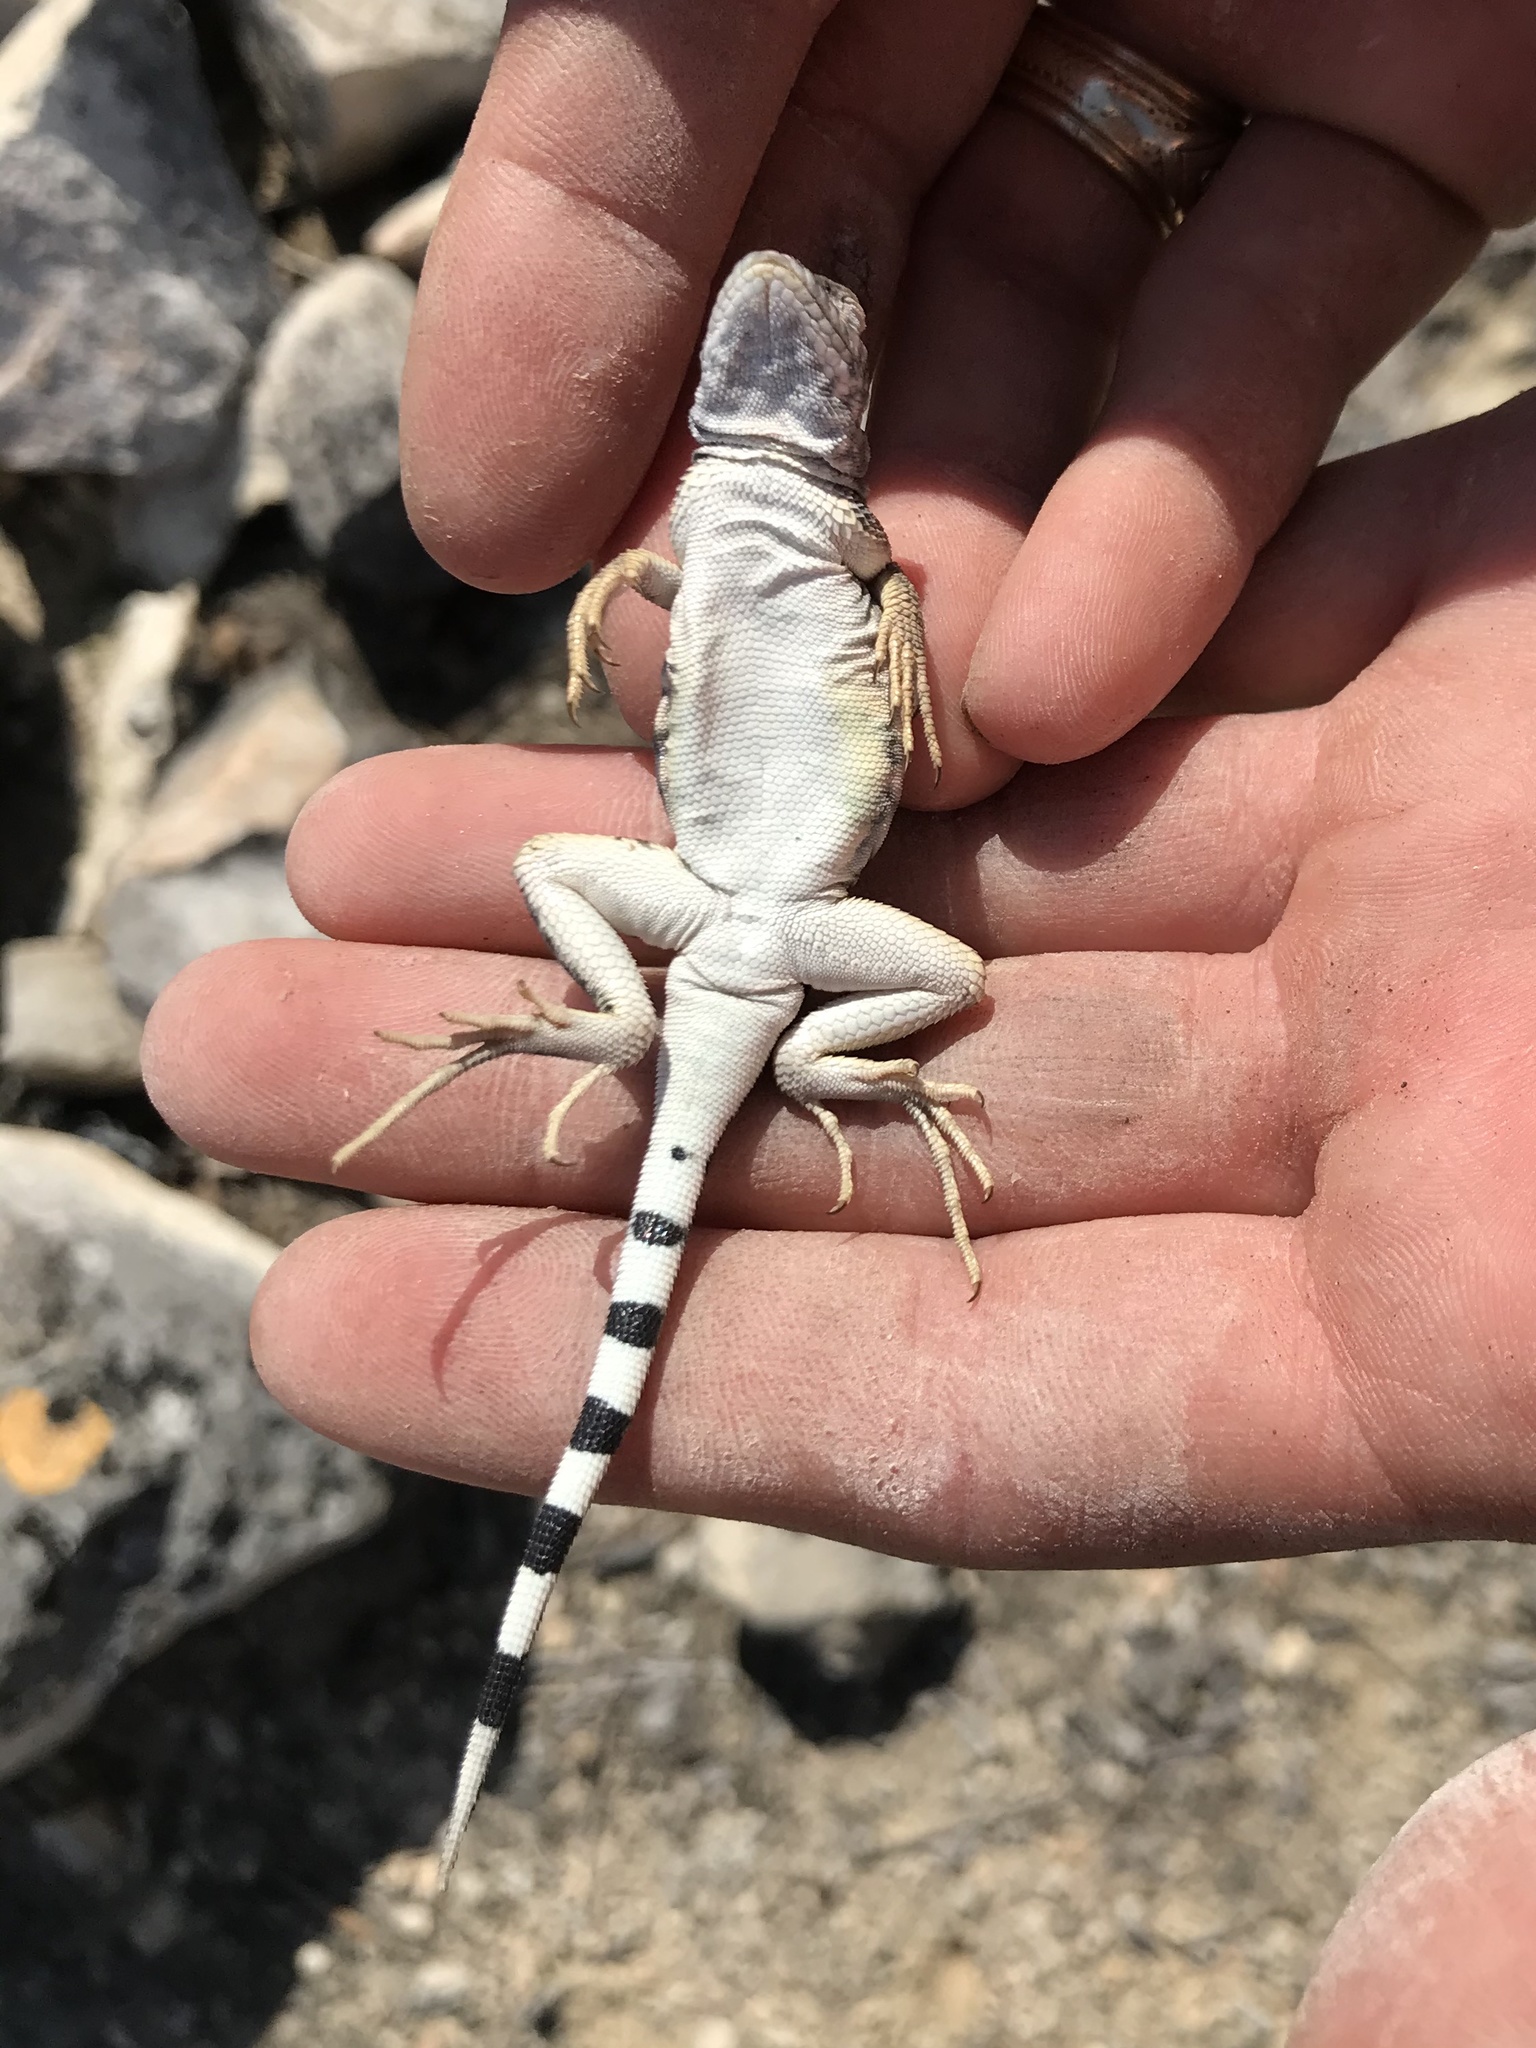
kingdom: Animalia
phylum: Chordata
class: Squamata
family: Phrynosomatidae
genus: Cophosaurus
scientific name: Cophosaurus texanus
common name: Greater earless lizard
